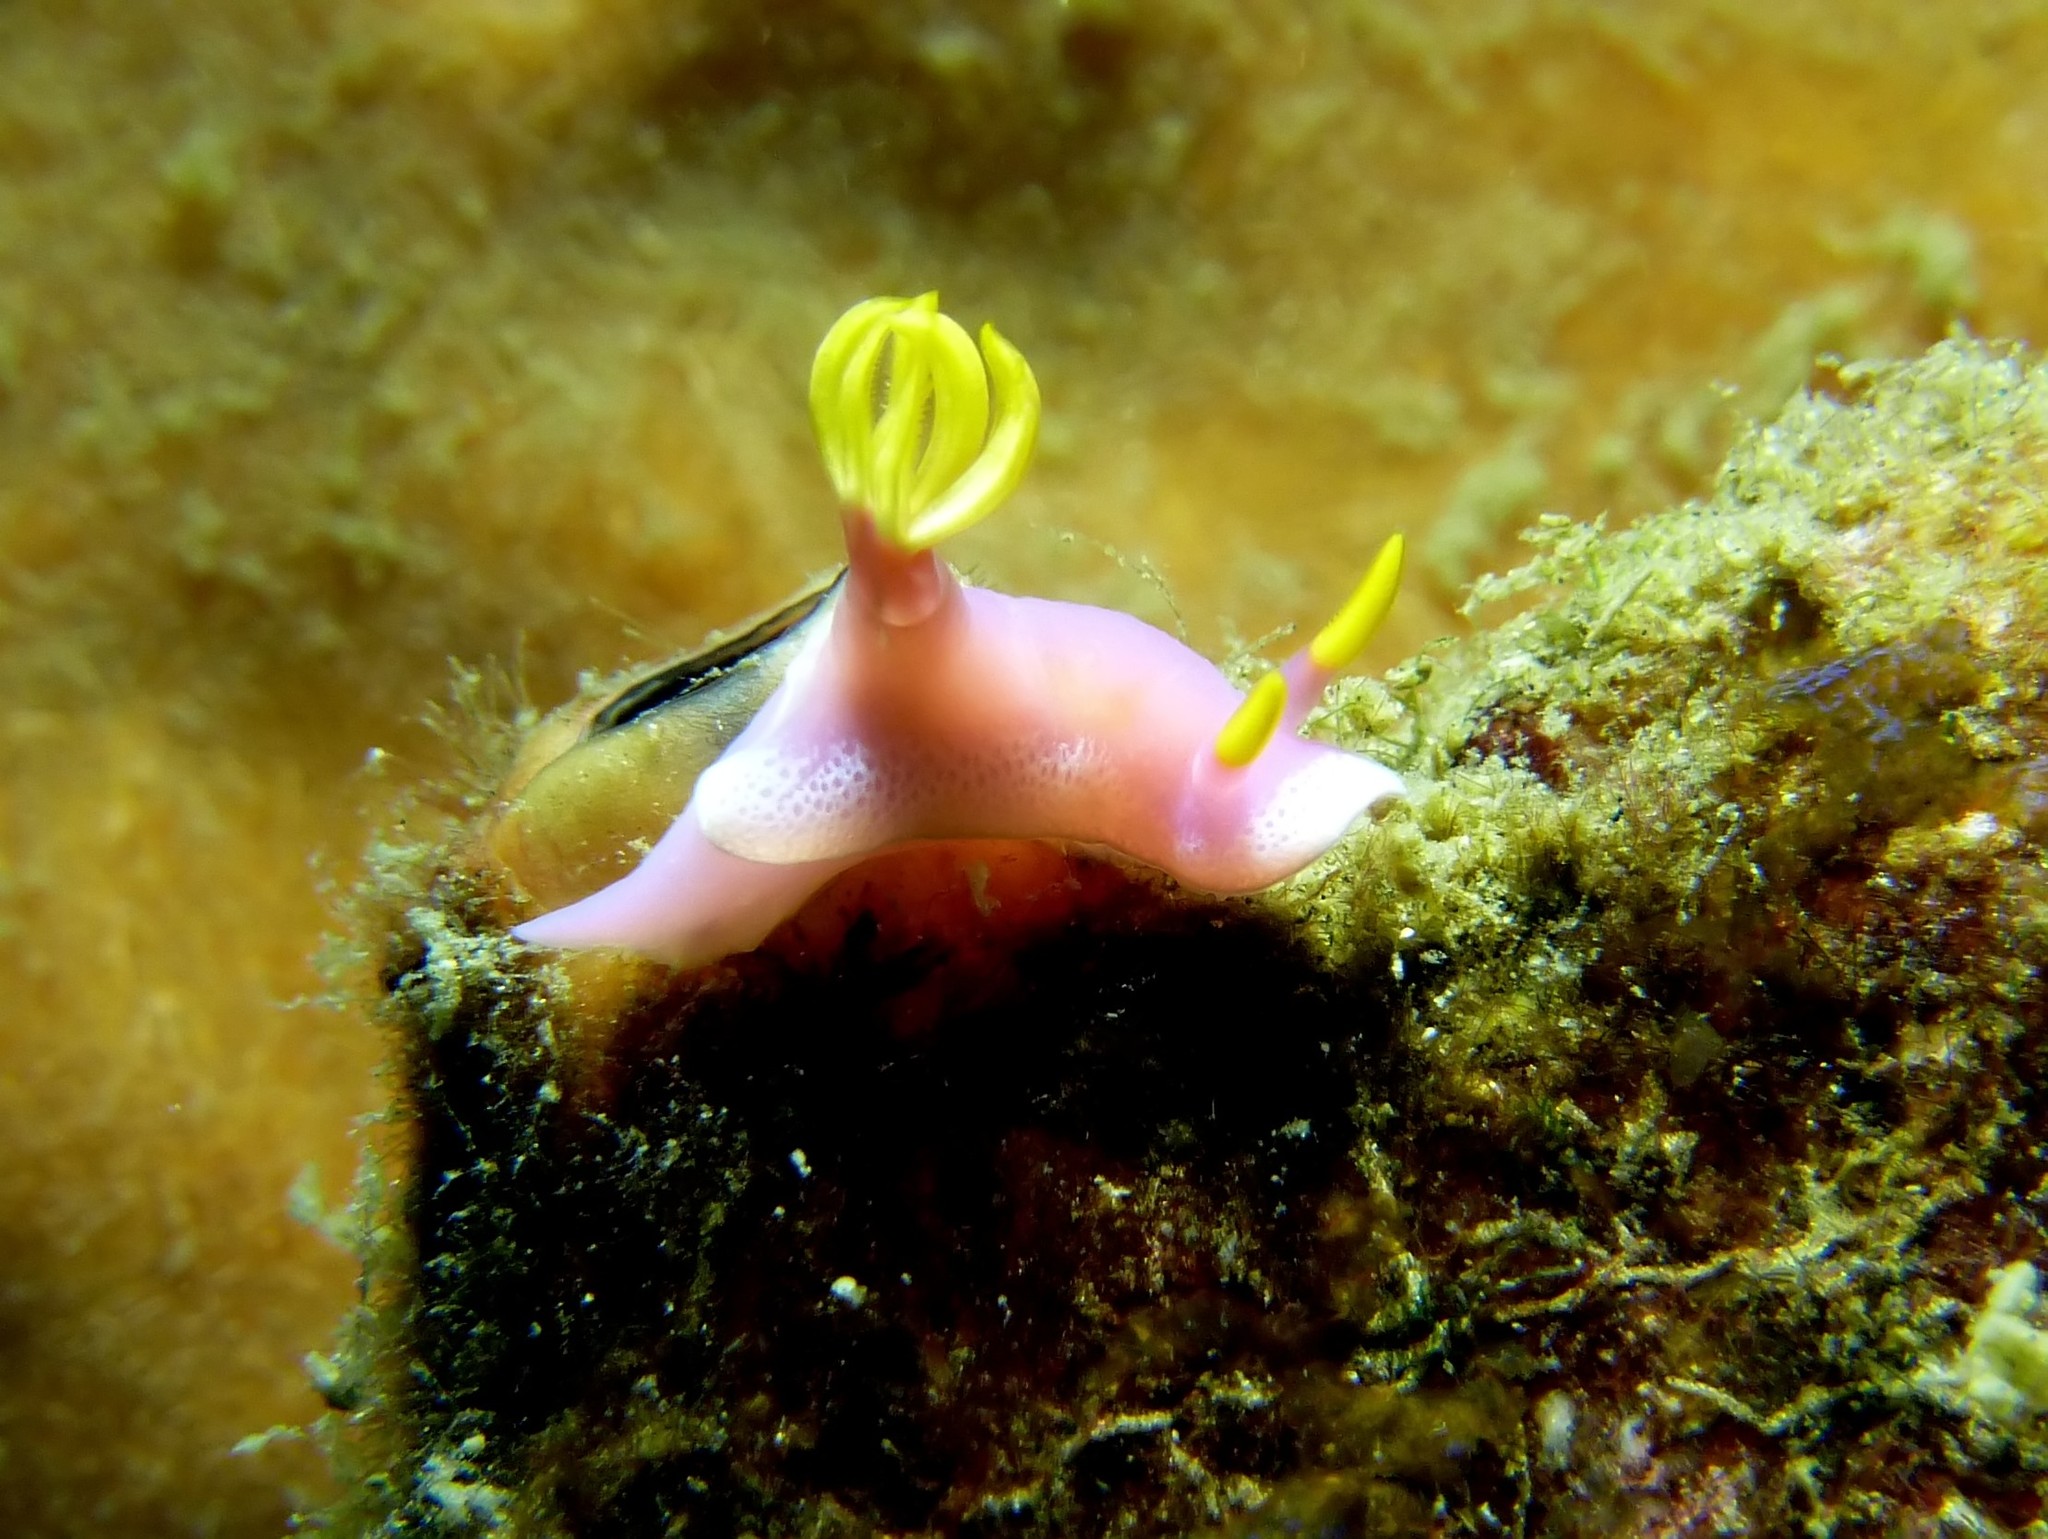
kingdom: Animalia
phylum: Mollusca
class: Gastropoda
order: Nudibranchia
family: Chromodorididae
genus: Hypselodoris
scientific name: Hypselodoris apolegma
